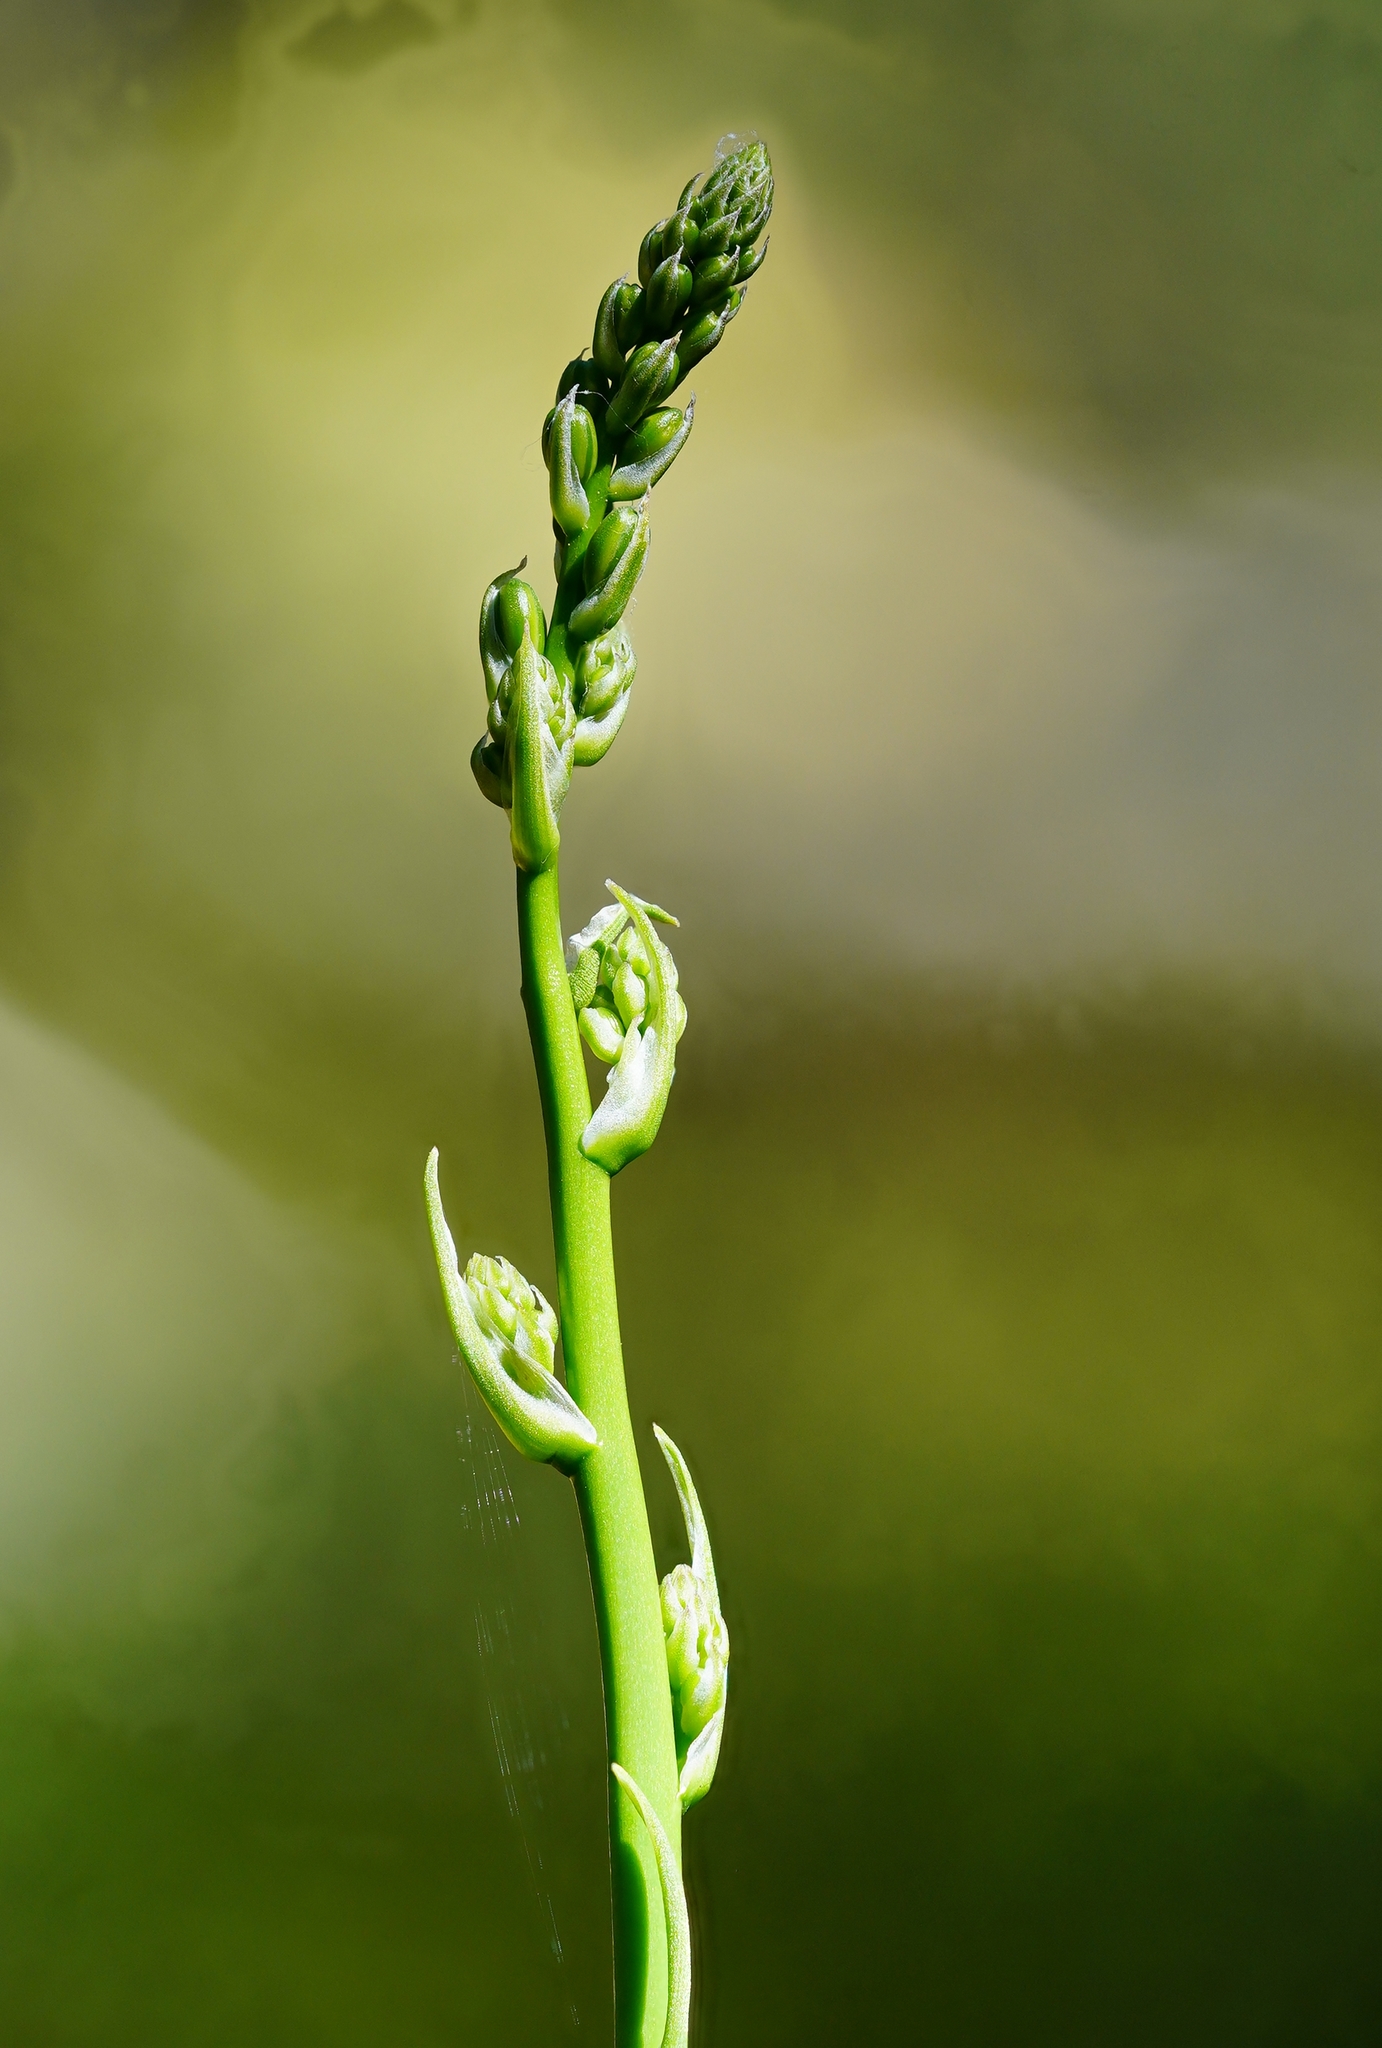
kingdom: Plantae
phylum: Tracheophyta
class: Liliopsida
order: Asparagales
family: Asparagaceae
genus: Chlorogalum
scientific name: Chlorogalum pomeridianum
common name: Amole
